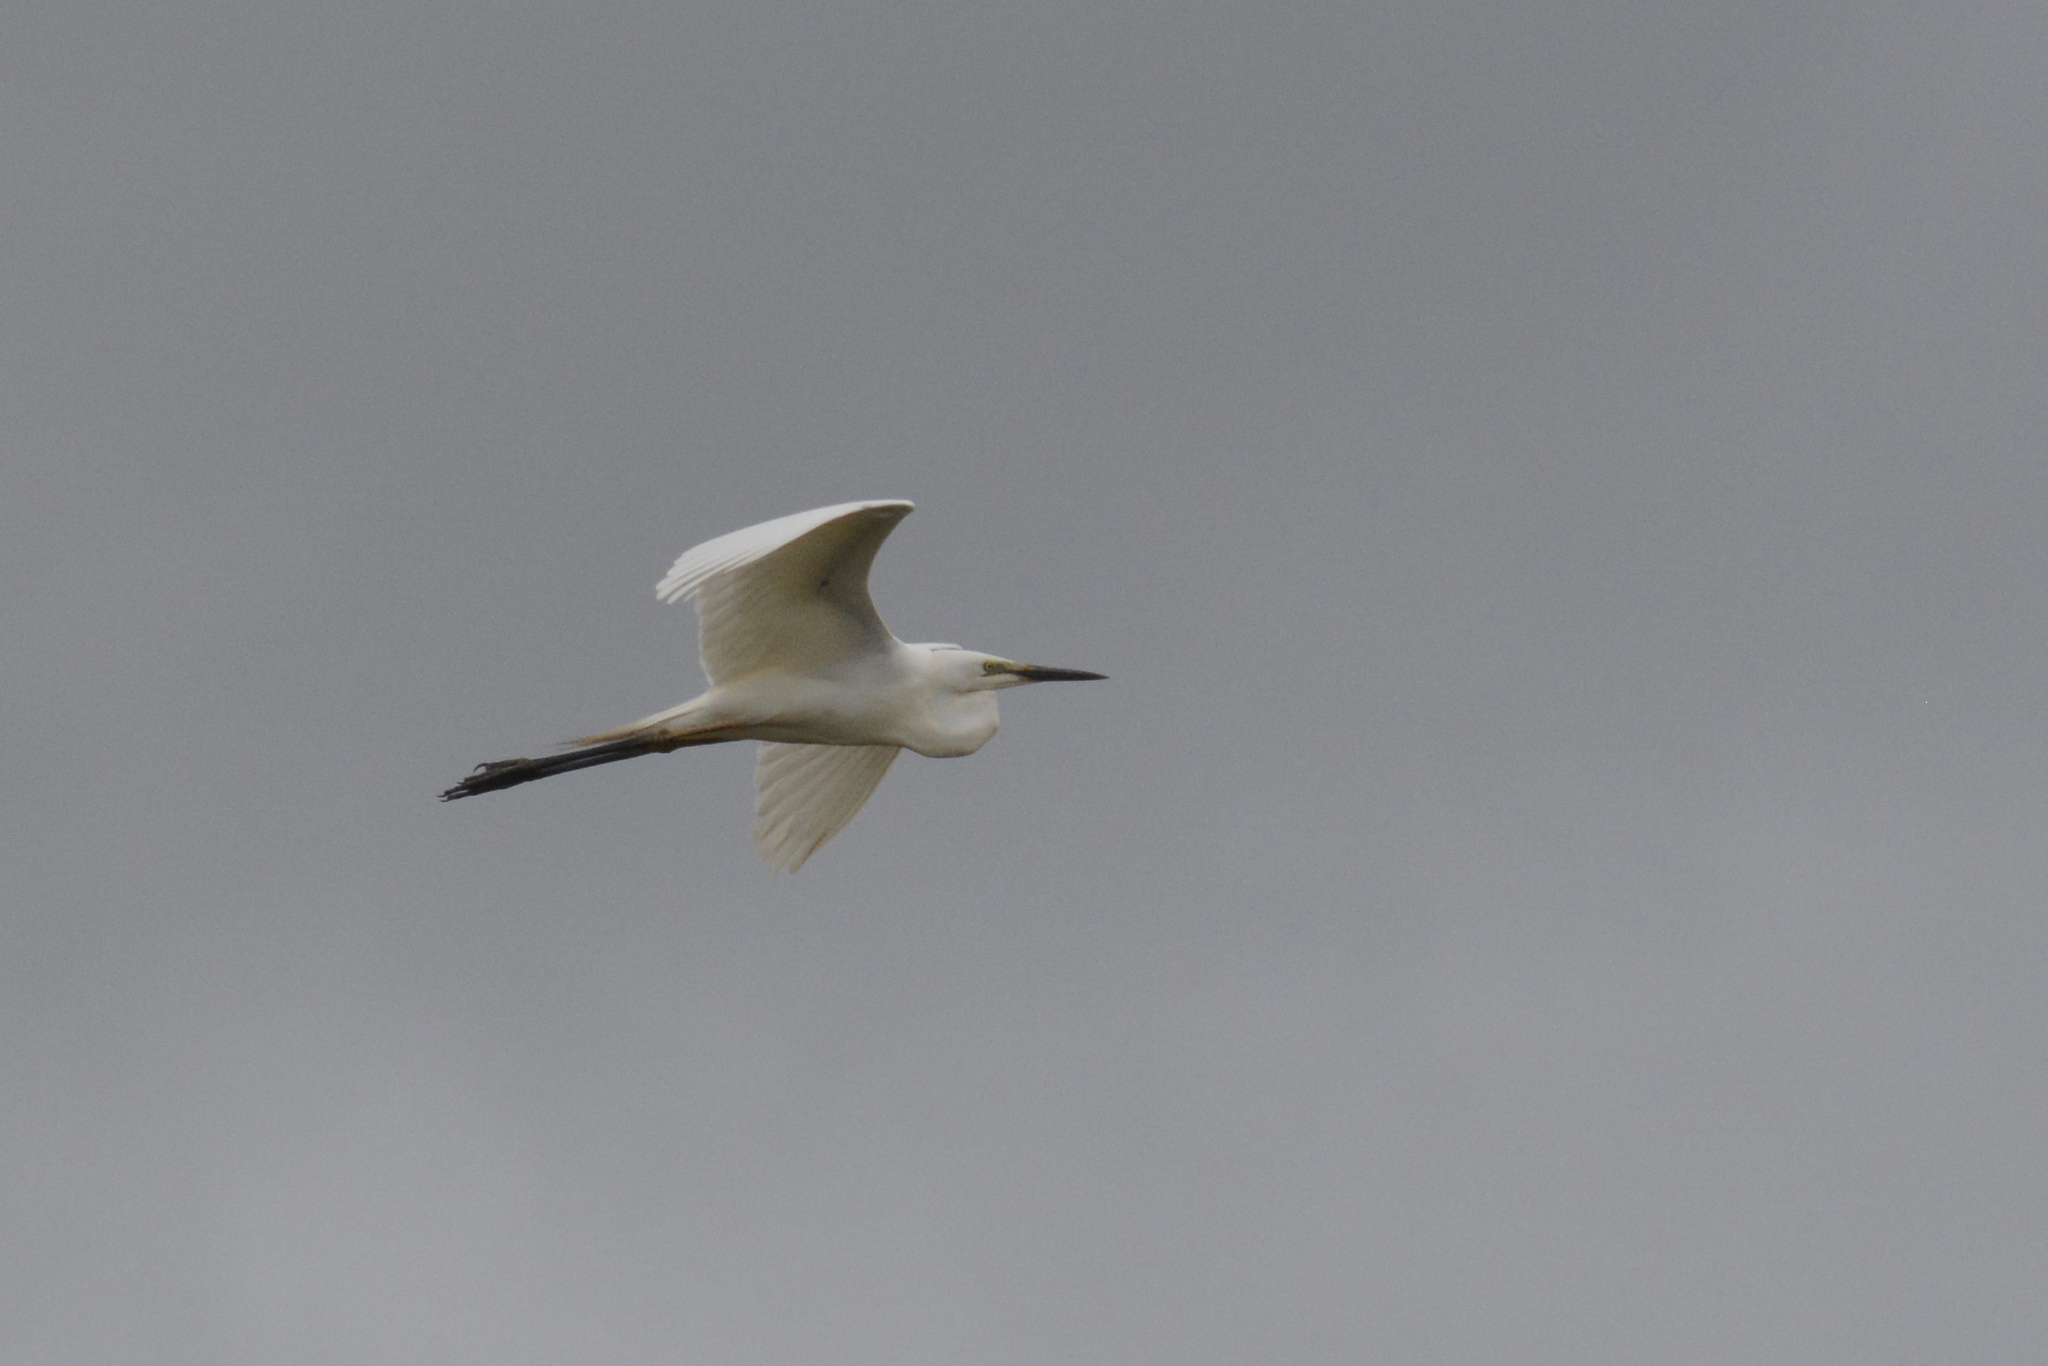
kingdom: Animalia
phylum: Chordata
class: Aves
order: Pelecaniformes
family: Ardeidae
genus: Ardea
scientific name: Ardea alba
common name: Great egret
